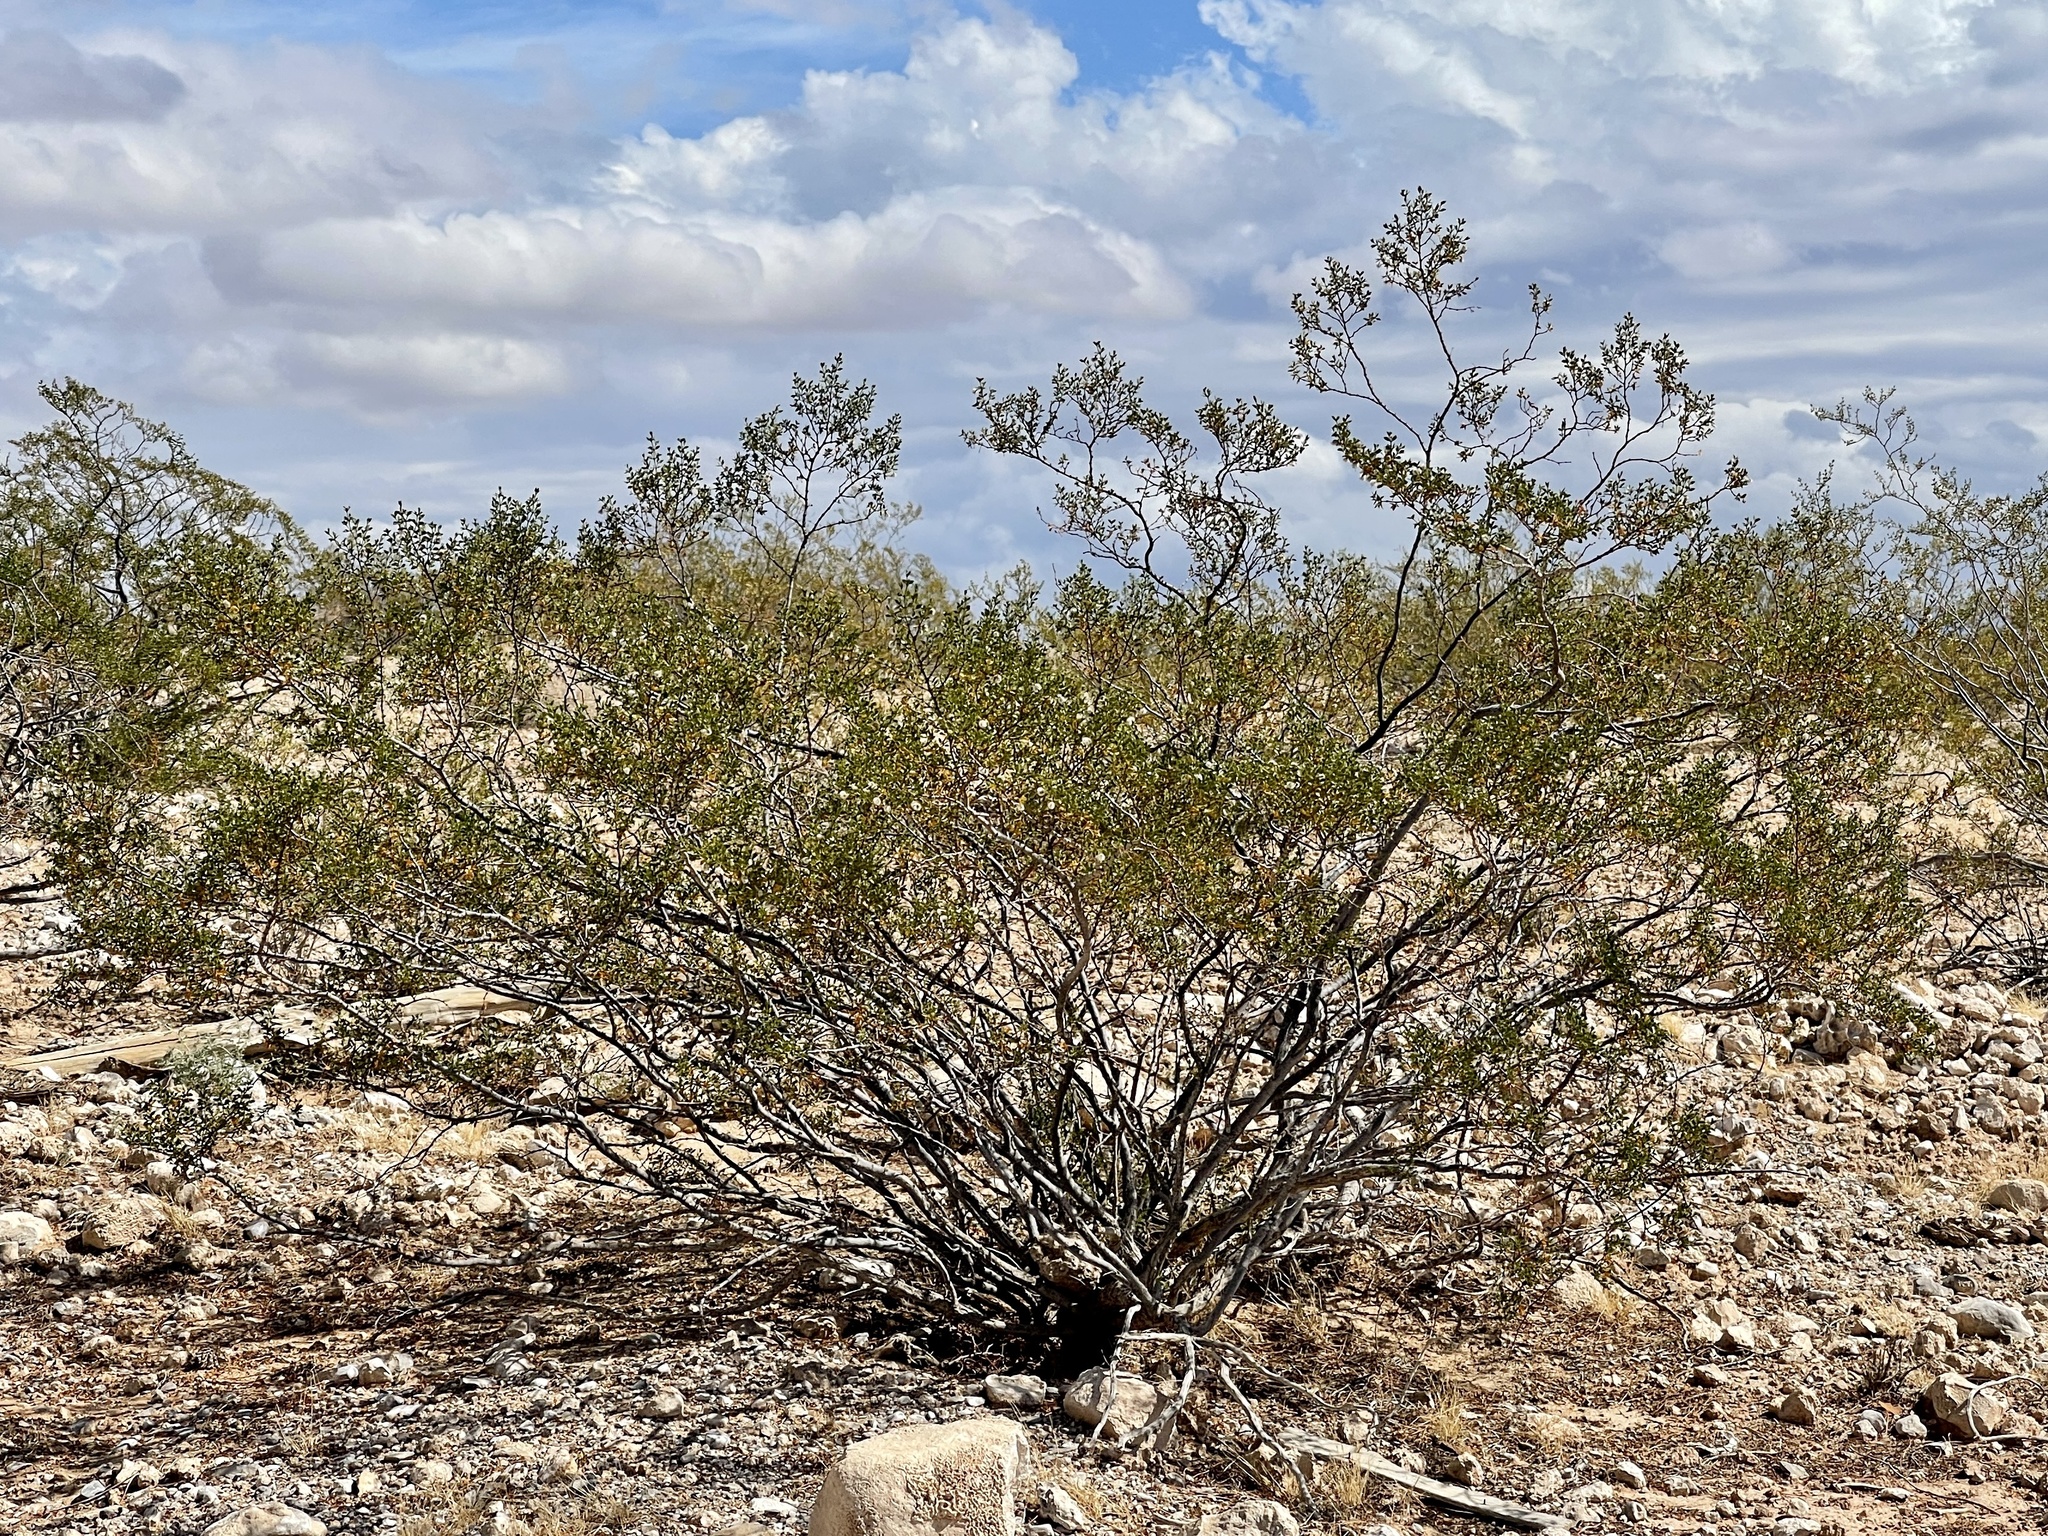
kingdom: Plantae
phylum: Tracheophyta
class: Magnoliopsida
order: Zygophyllales
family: Zygophyllaceae
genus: Larrea
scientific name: Larrea tridentata
